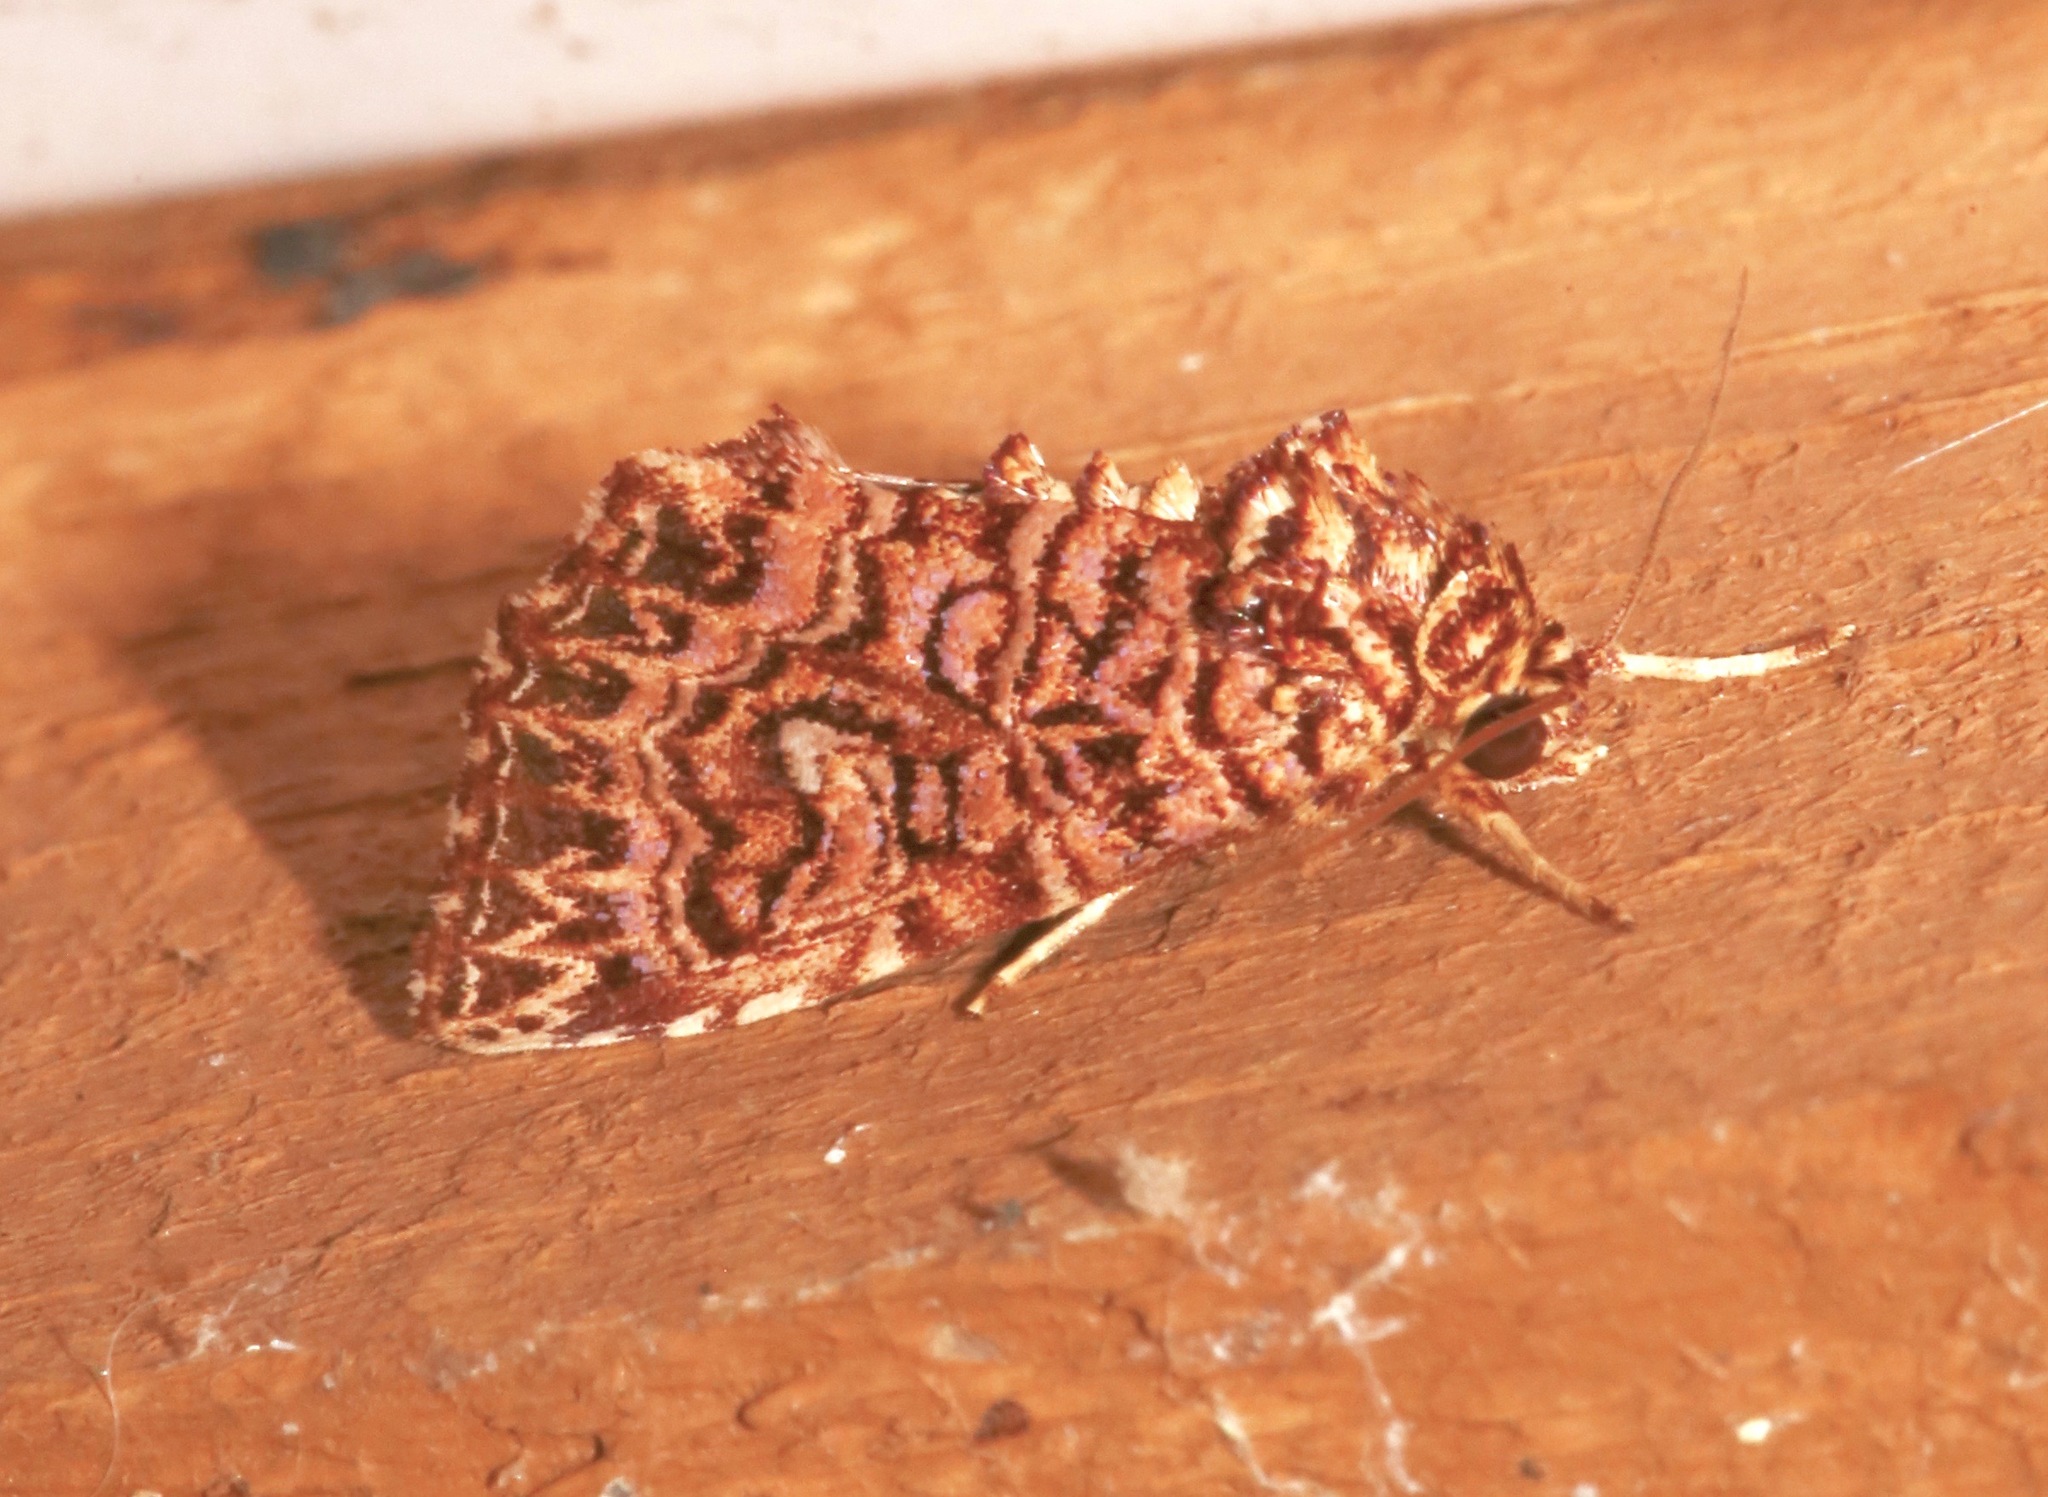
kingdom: Animalia
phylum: Arthropoda
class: Insecta
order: Lepidoptera
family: Noctuidae
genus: Callopistria
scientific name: Callopistria granitosa
